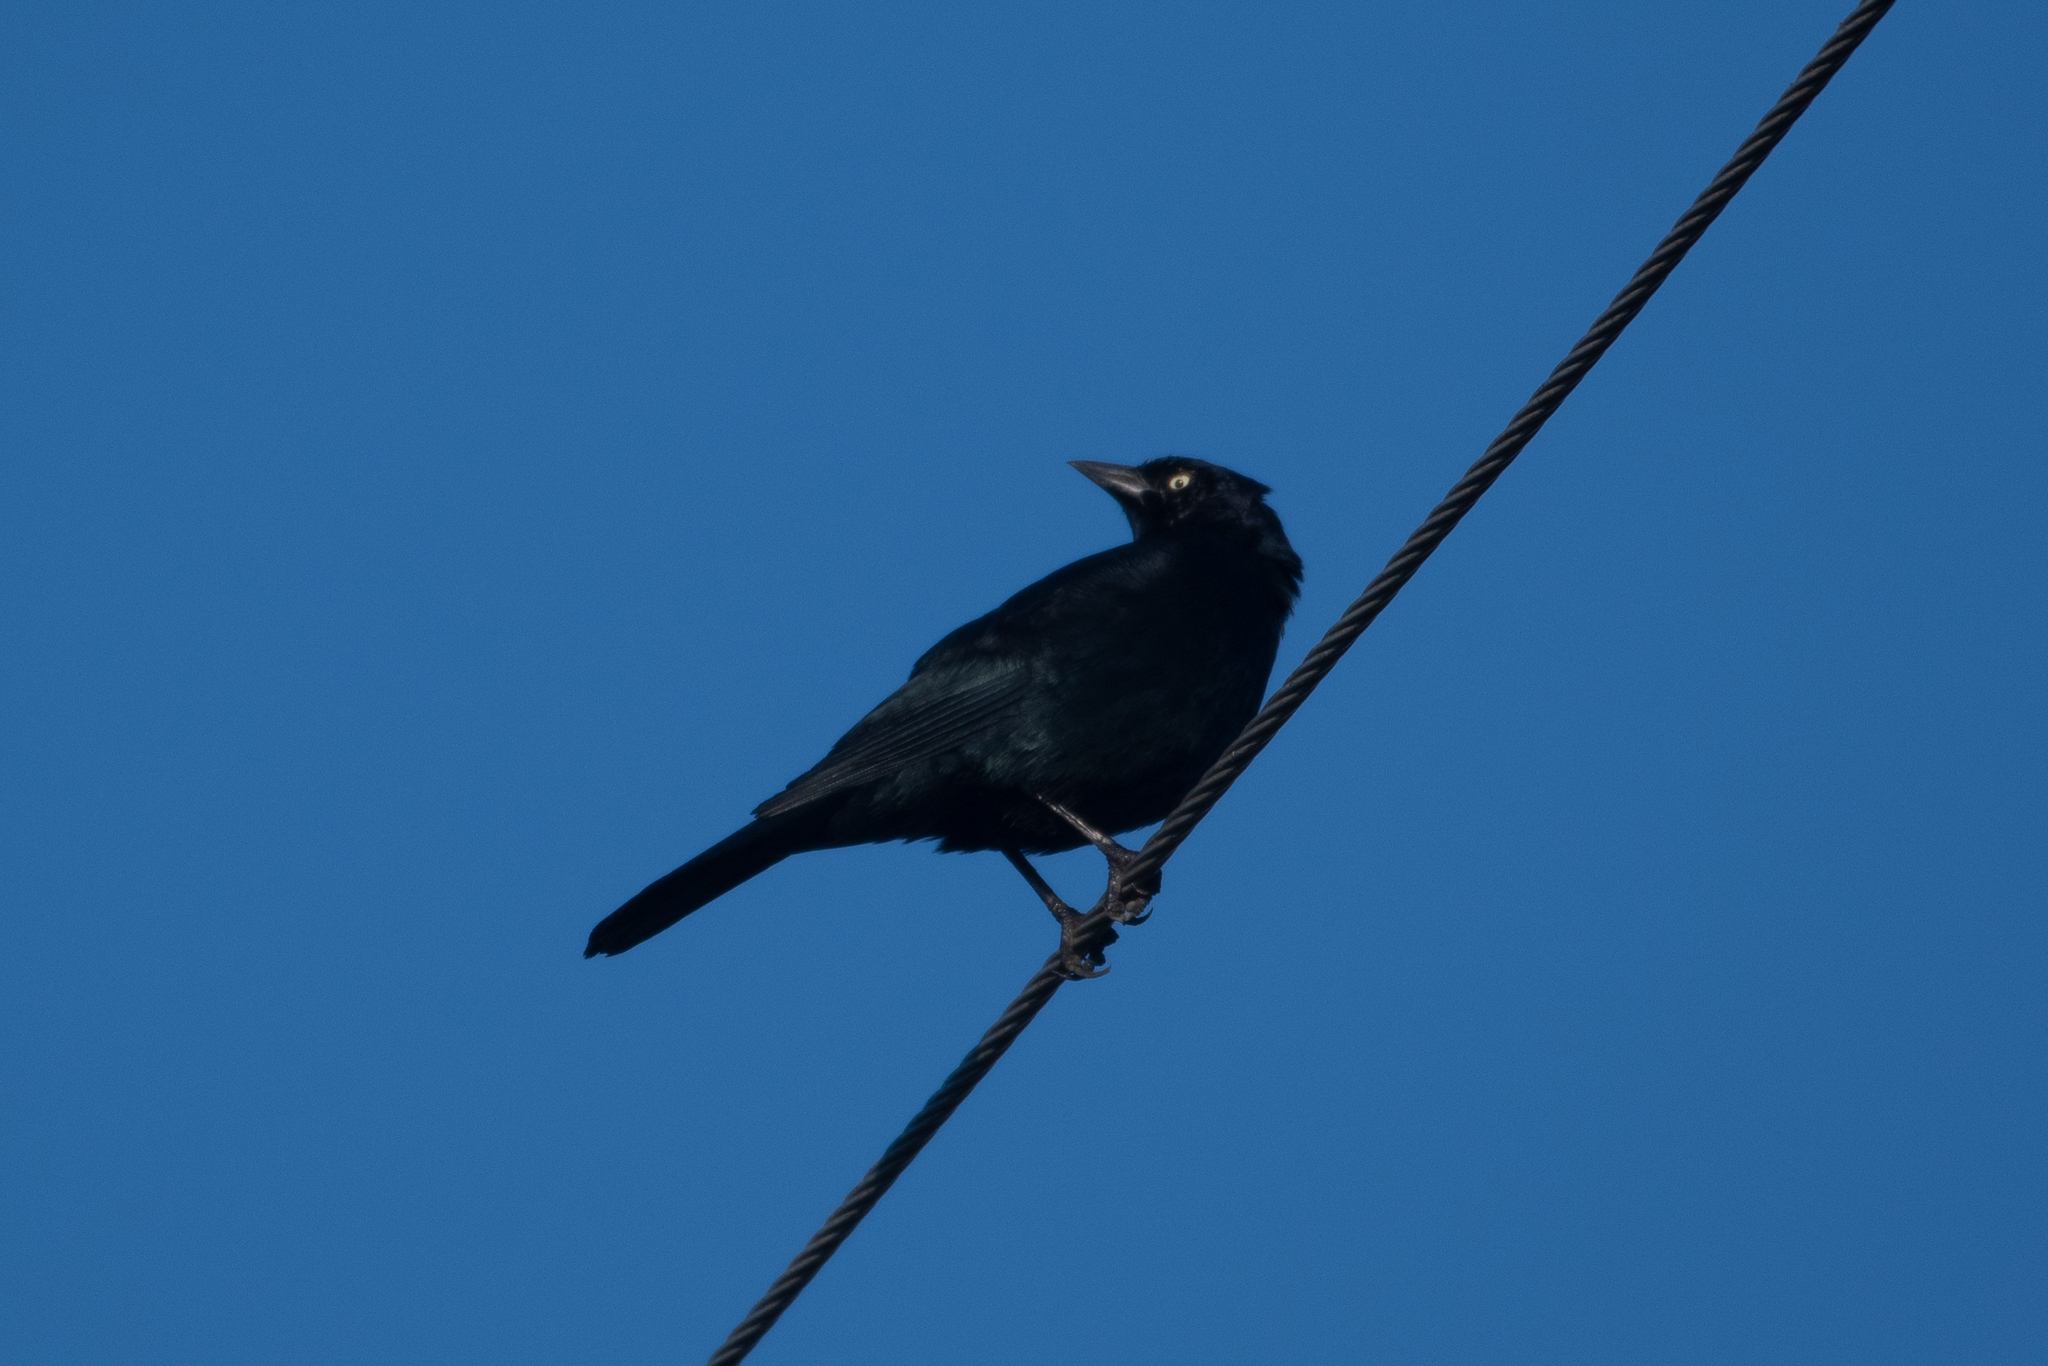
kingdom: Animalia
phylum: Chordata
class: Aves
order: Passeriformes
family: Icteridae
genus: Euphagus
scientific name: Euphagus cyanocephalus
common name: Brewer's blackbird
